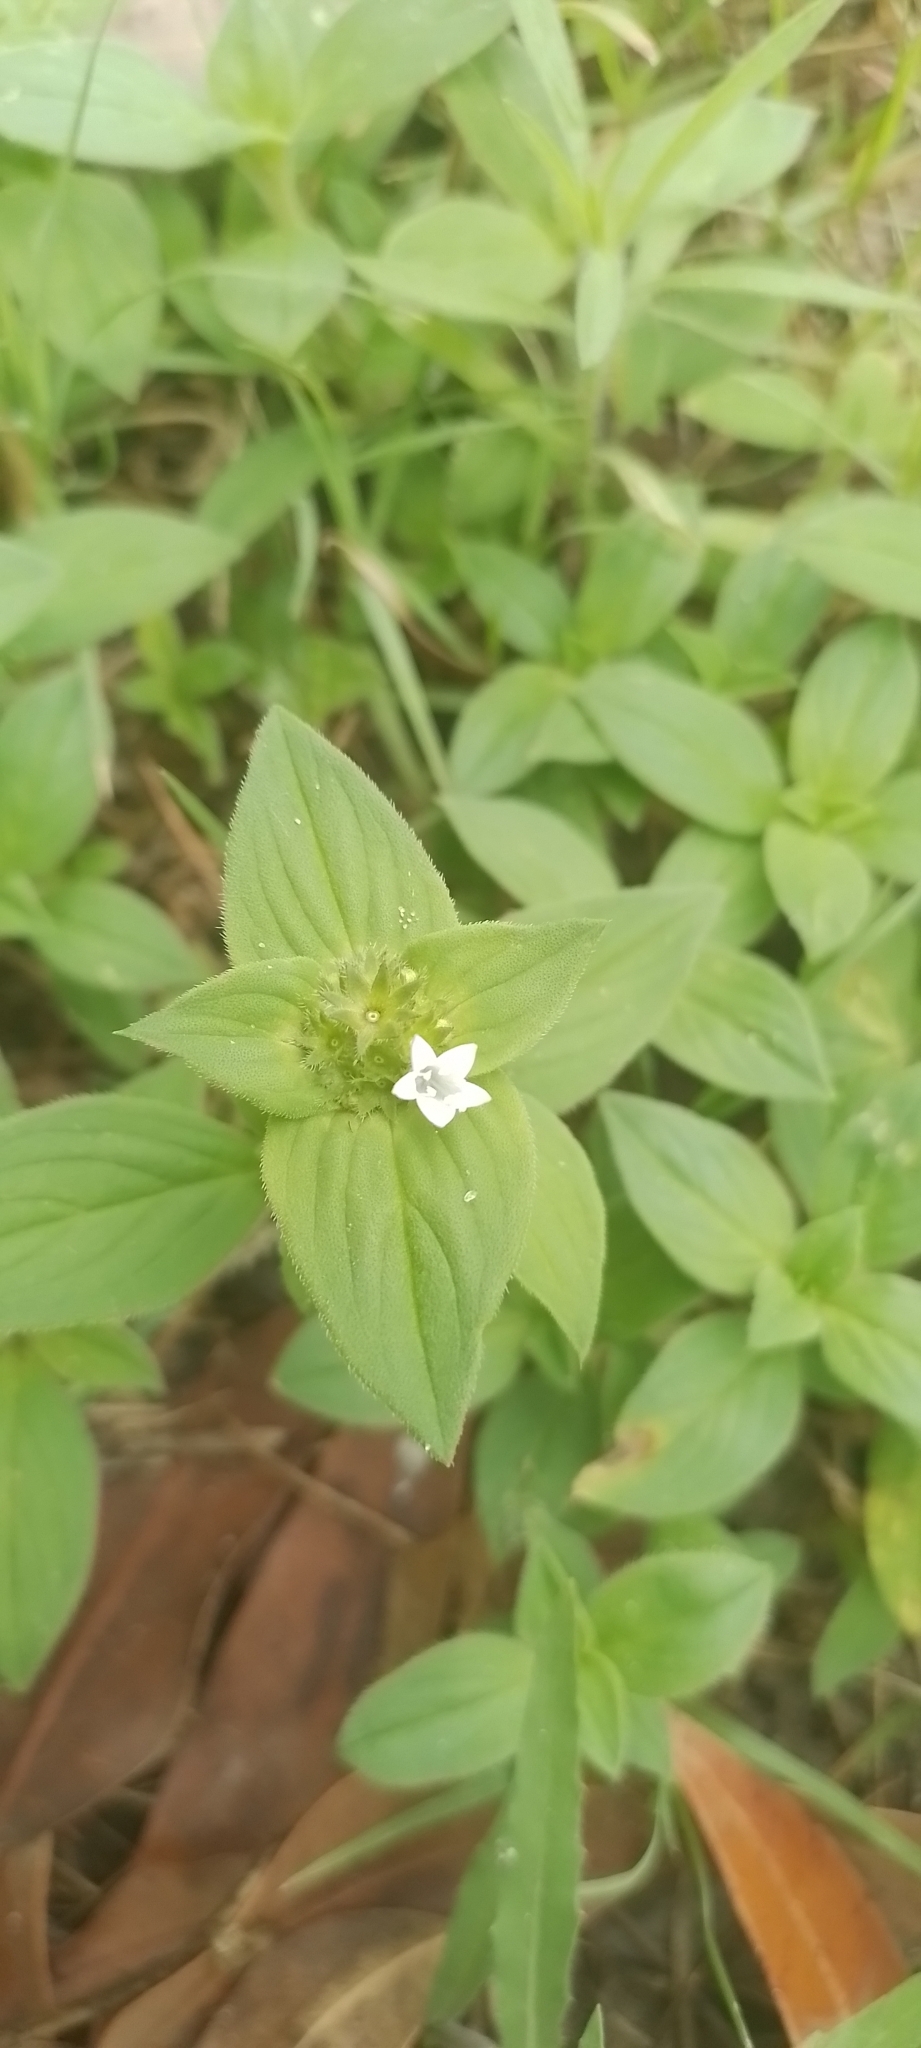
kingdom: Plantae
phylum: Tracheophyta
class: Magnoliopsida
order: Gentianales
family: Rubiaceae
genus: Richardia
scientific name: Richardia brasiliensis
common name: Tropical mexican clover
